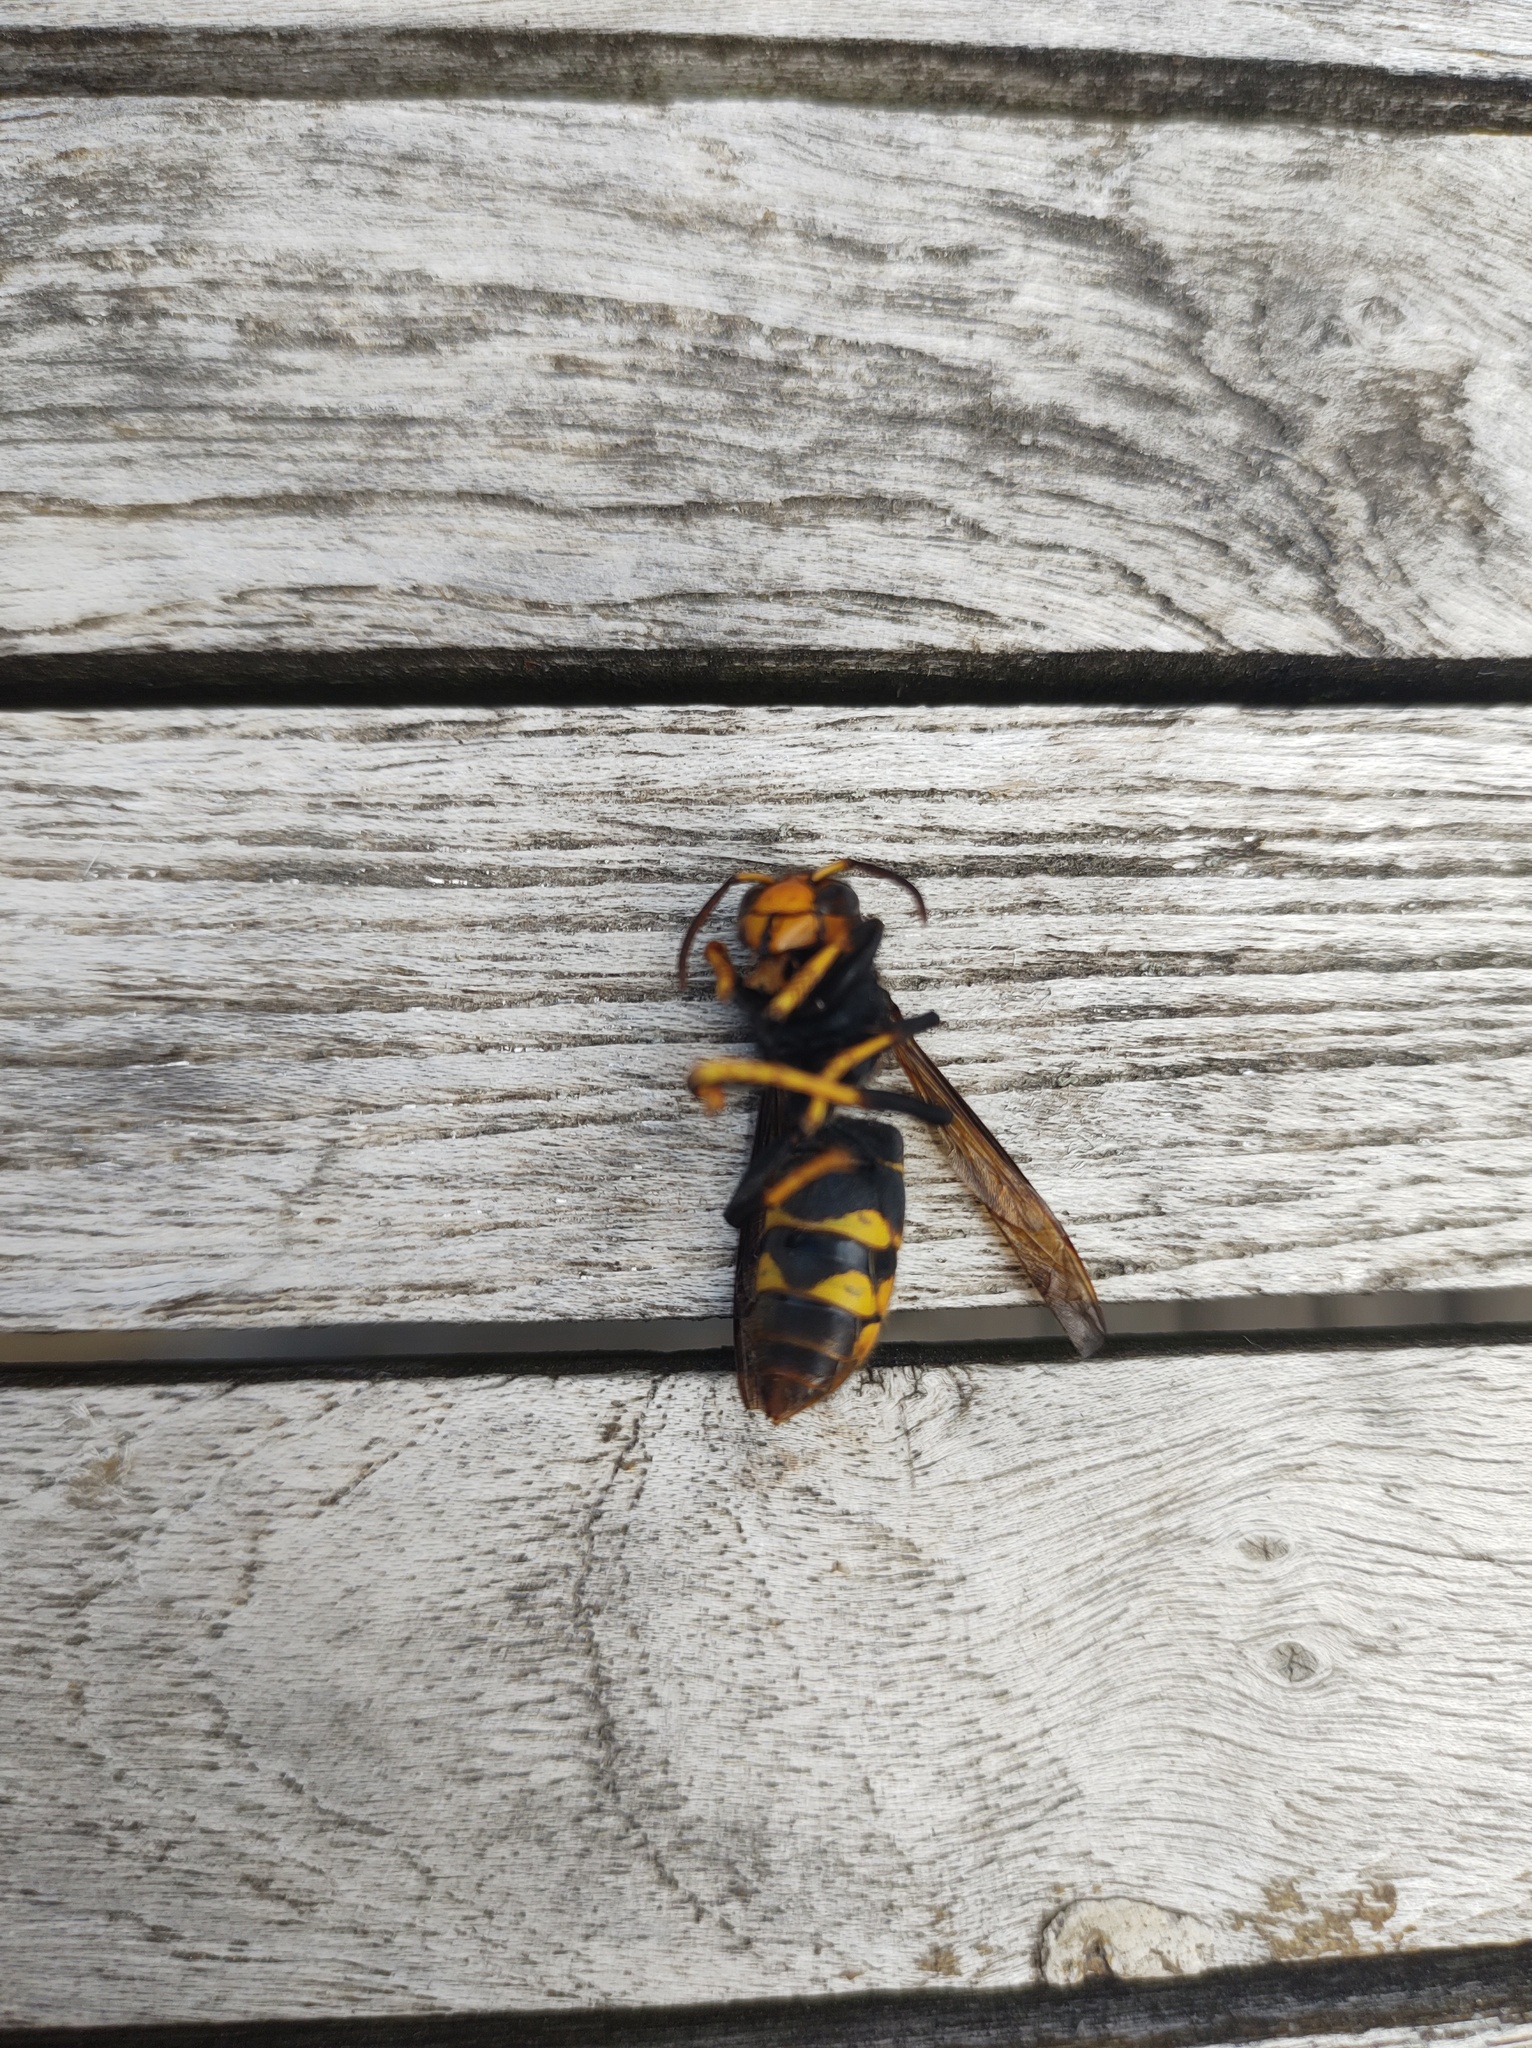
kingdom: Animalia
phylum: Arthropoda
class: Insecta
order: Hymenoptera
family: Vespidae
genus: Vespa
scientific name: Vespa velutina
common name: Asian hornet
